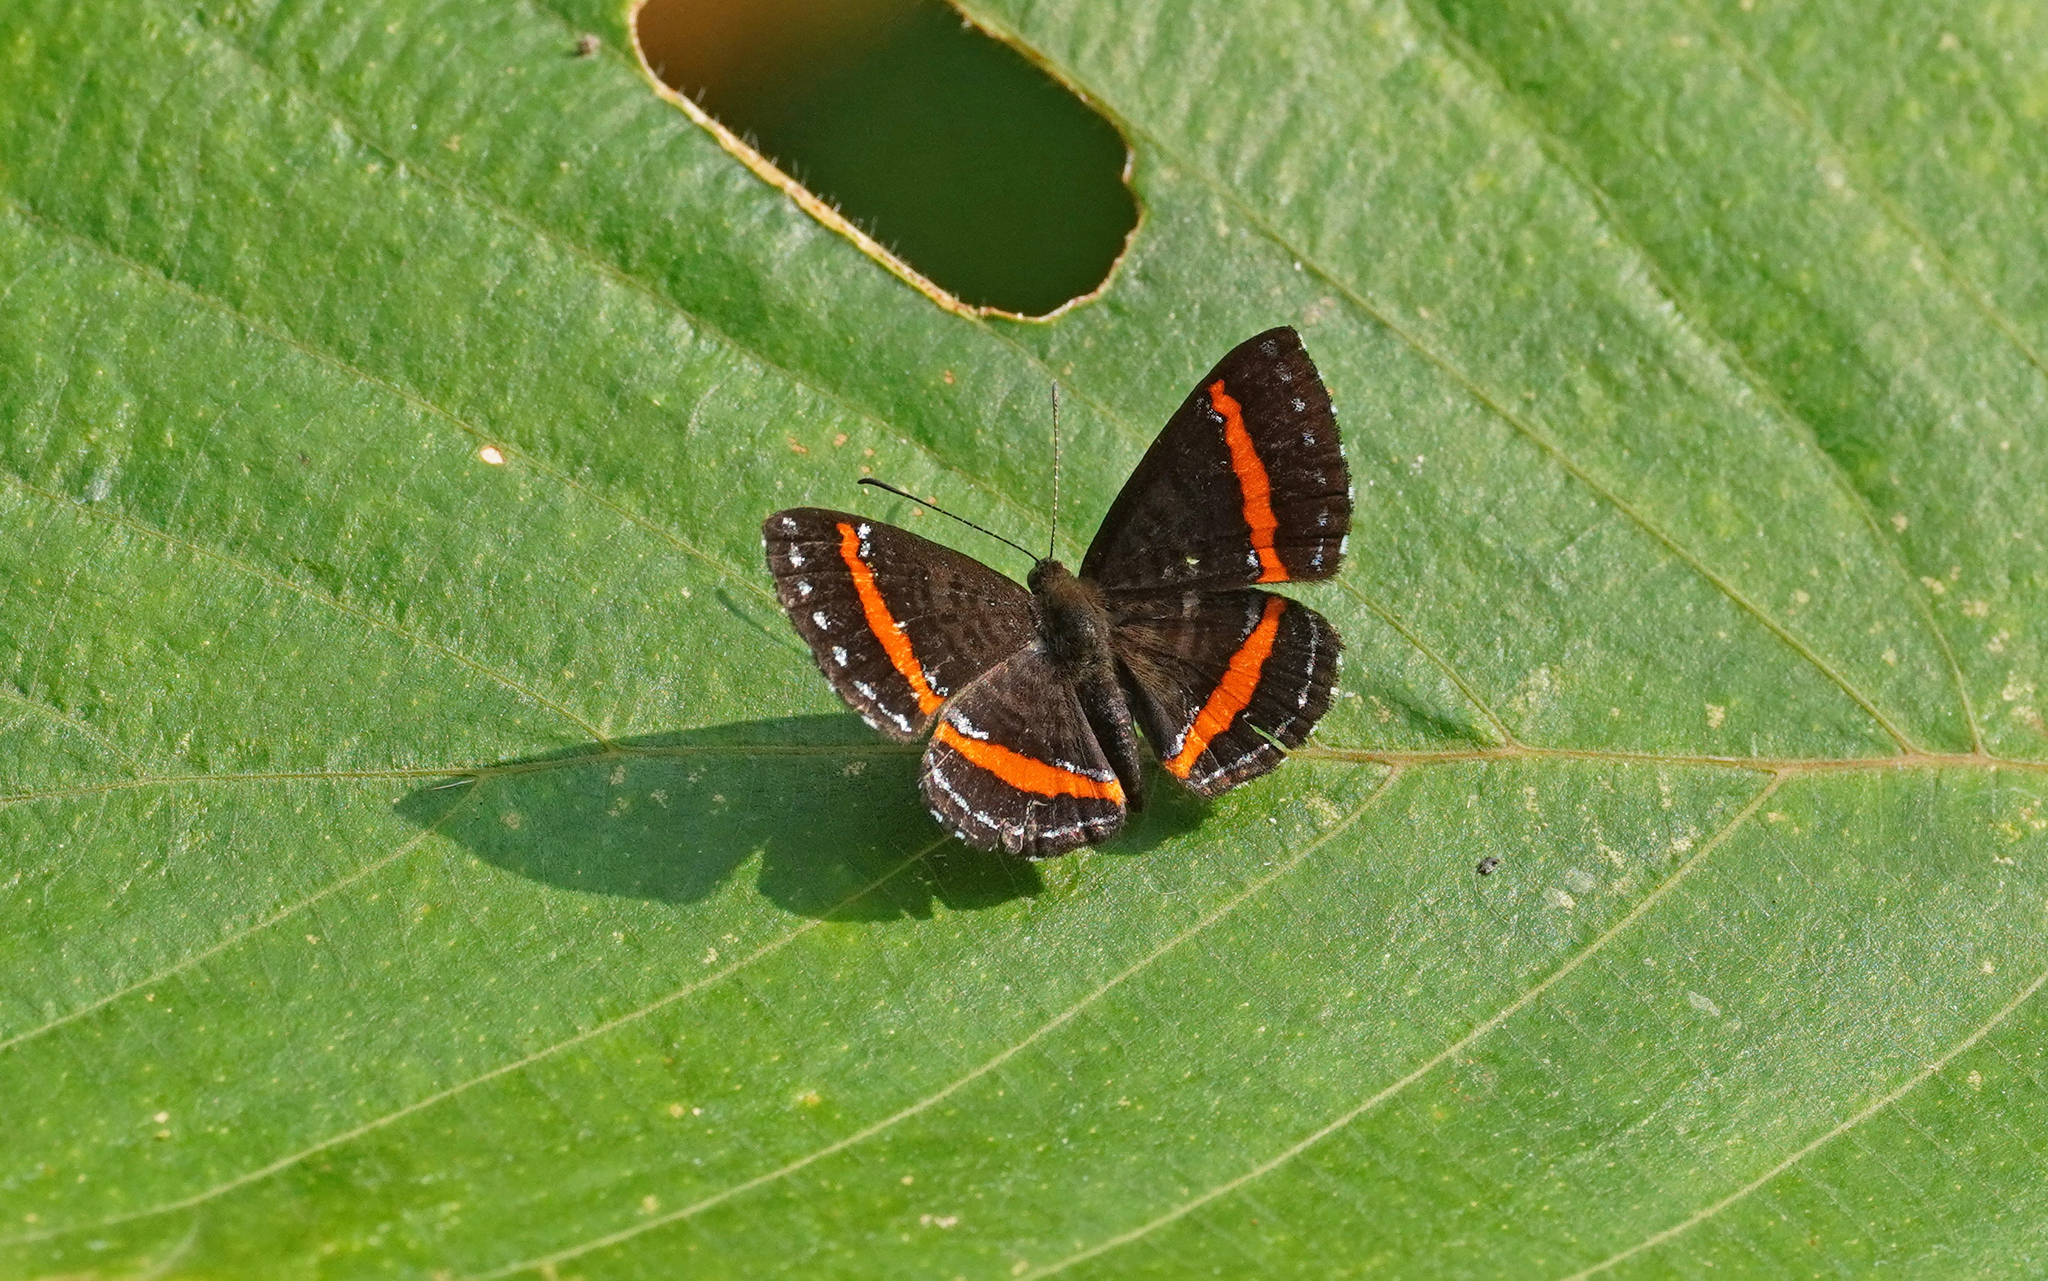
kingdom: Animalia
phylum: Arthropoda
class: Insecta
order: Lepidoptera
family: Riodinidae
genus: Crocozona
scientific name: Crocozona coecias
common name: Orange-banded gem
